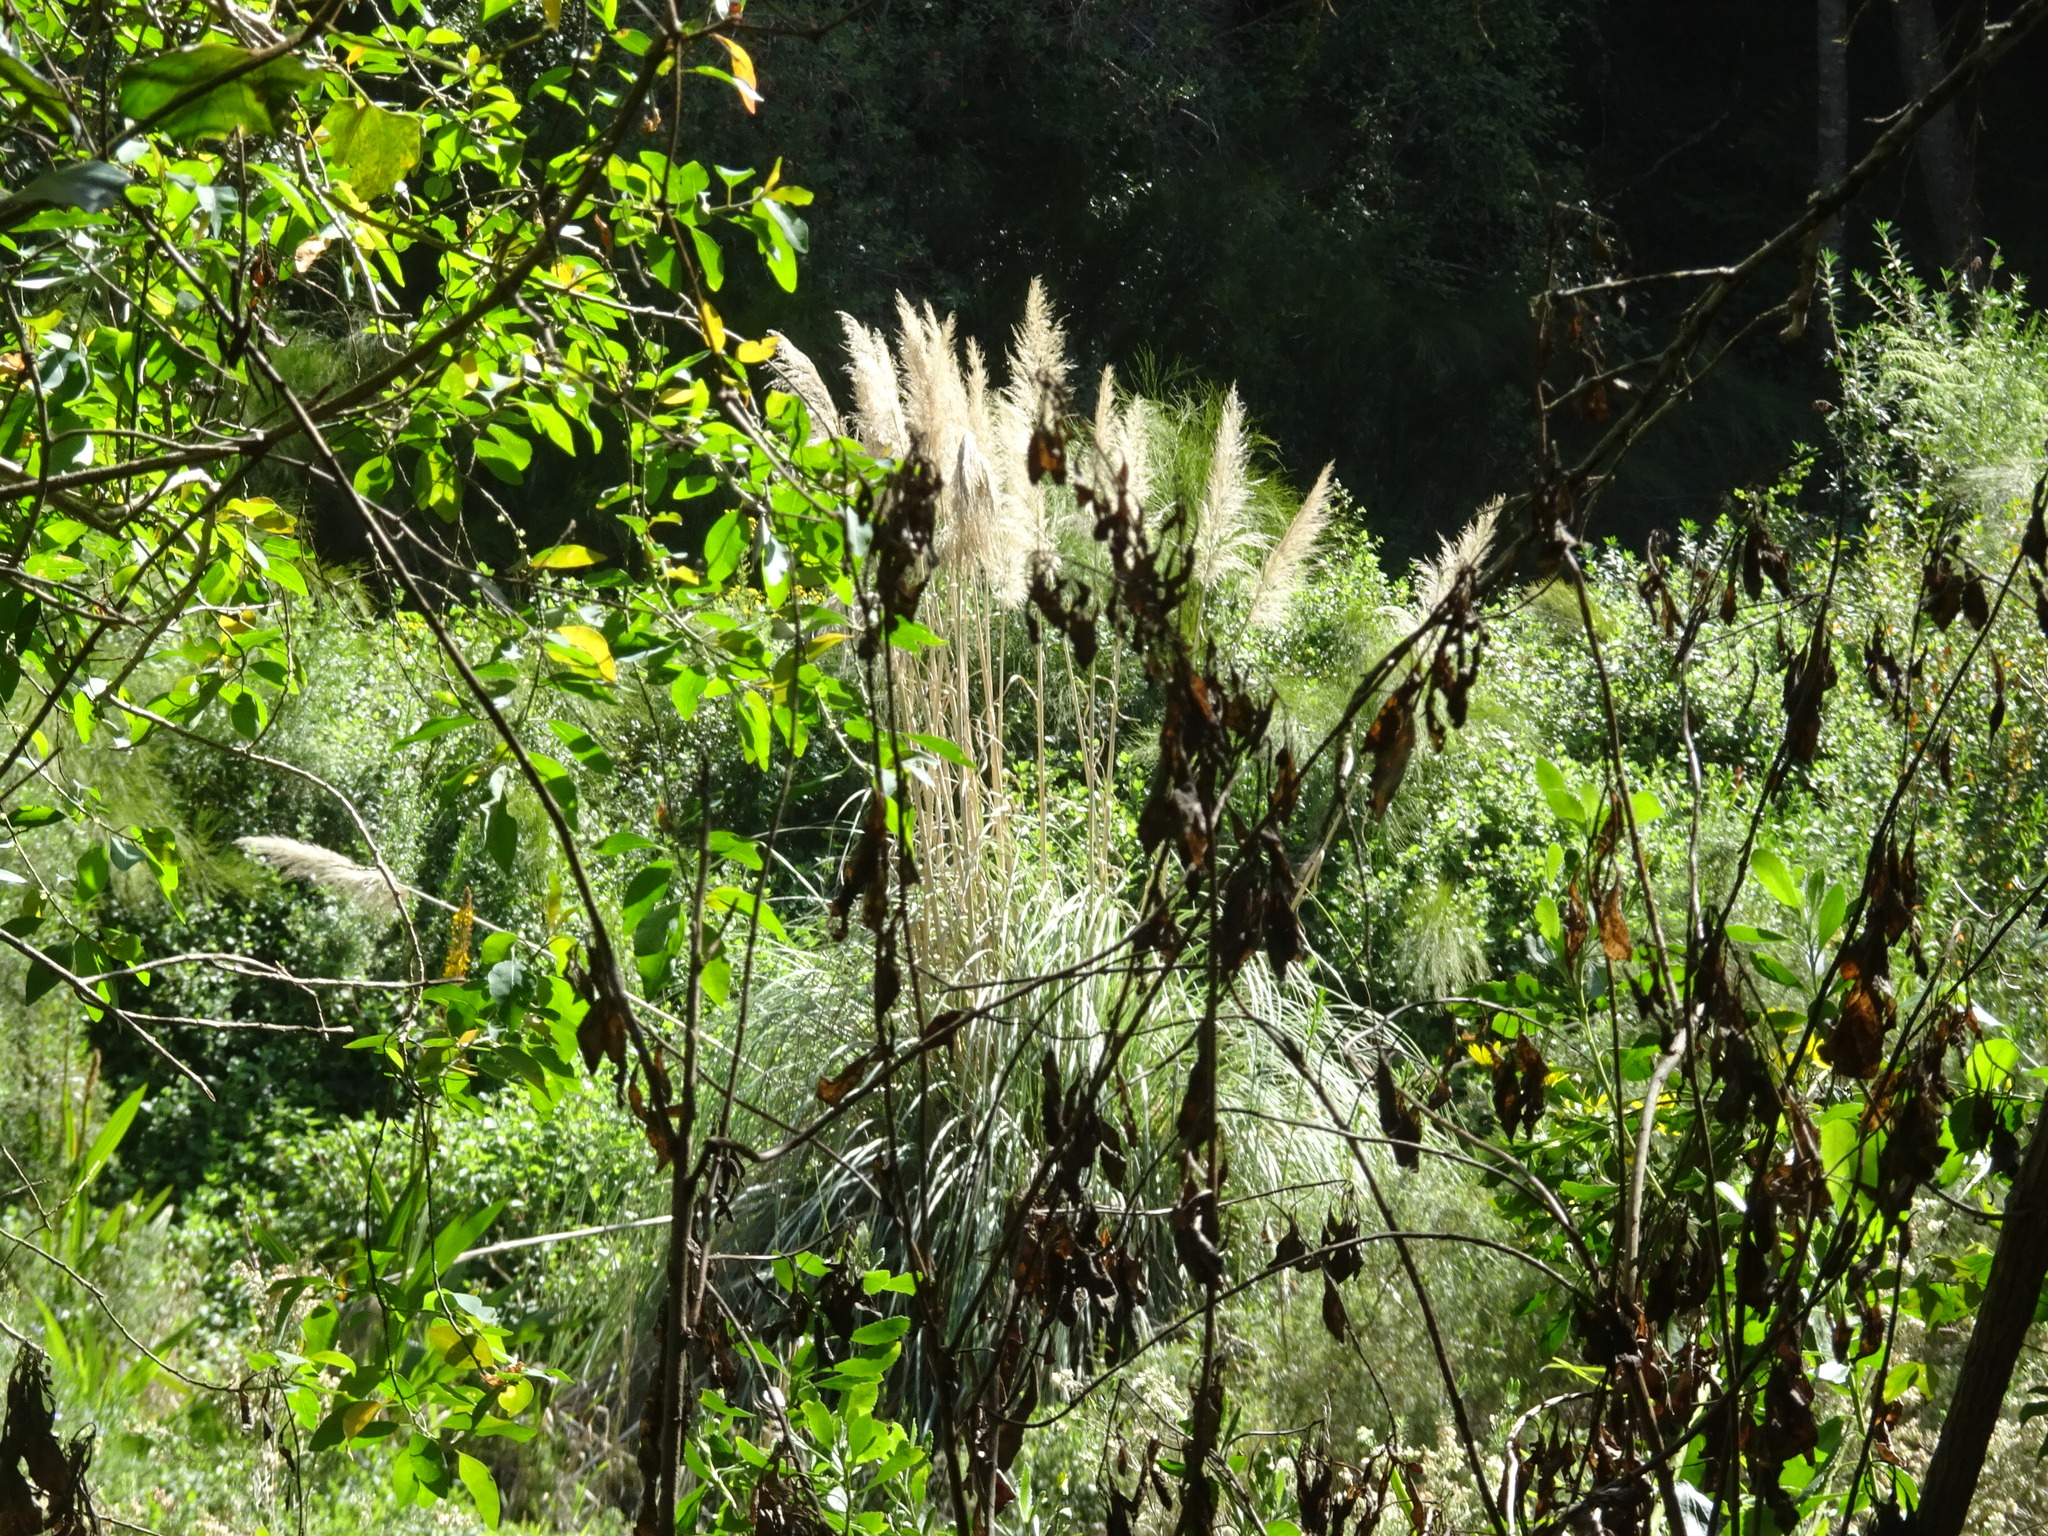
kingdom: Plantae
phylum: Tracheophyta
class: Liliopsida
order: Poales
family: Poaceae
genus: Cortaderia
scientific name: Cortaderia selloana
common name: Uruguayan pampas grass
